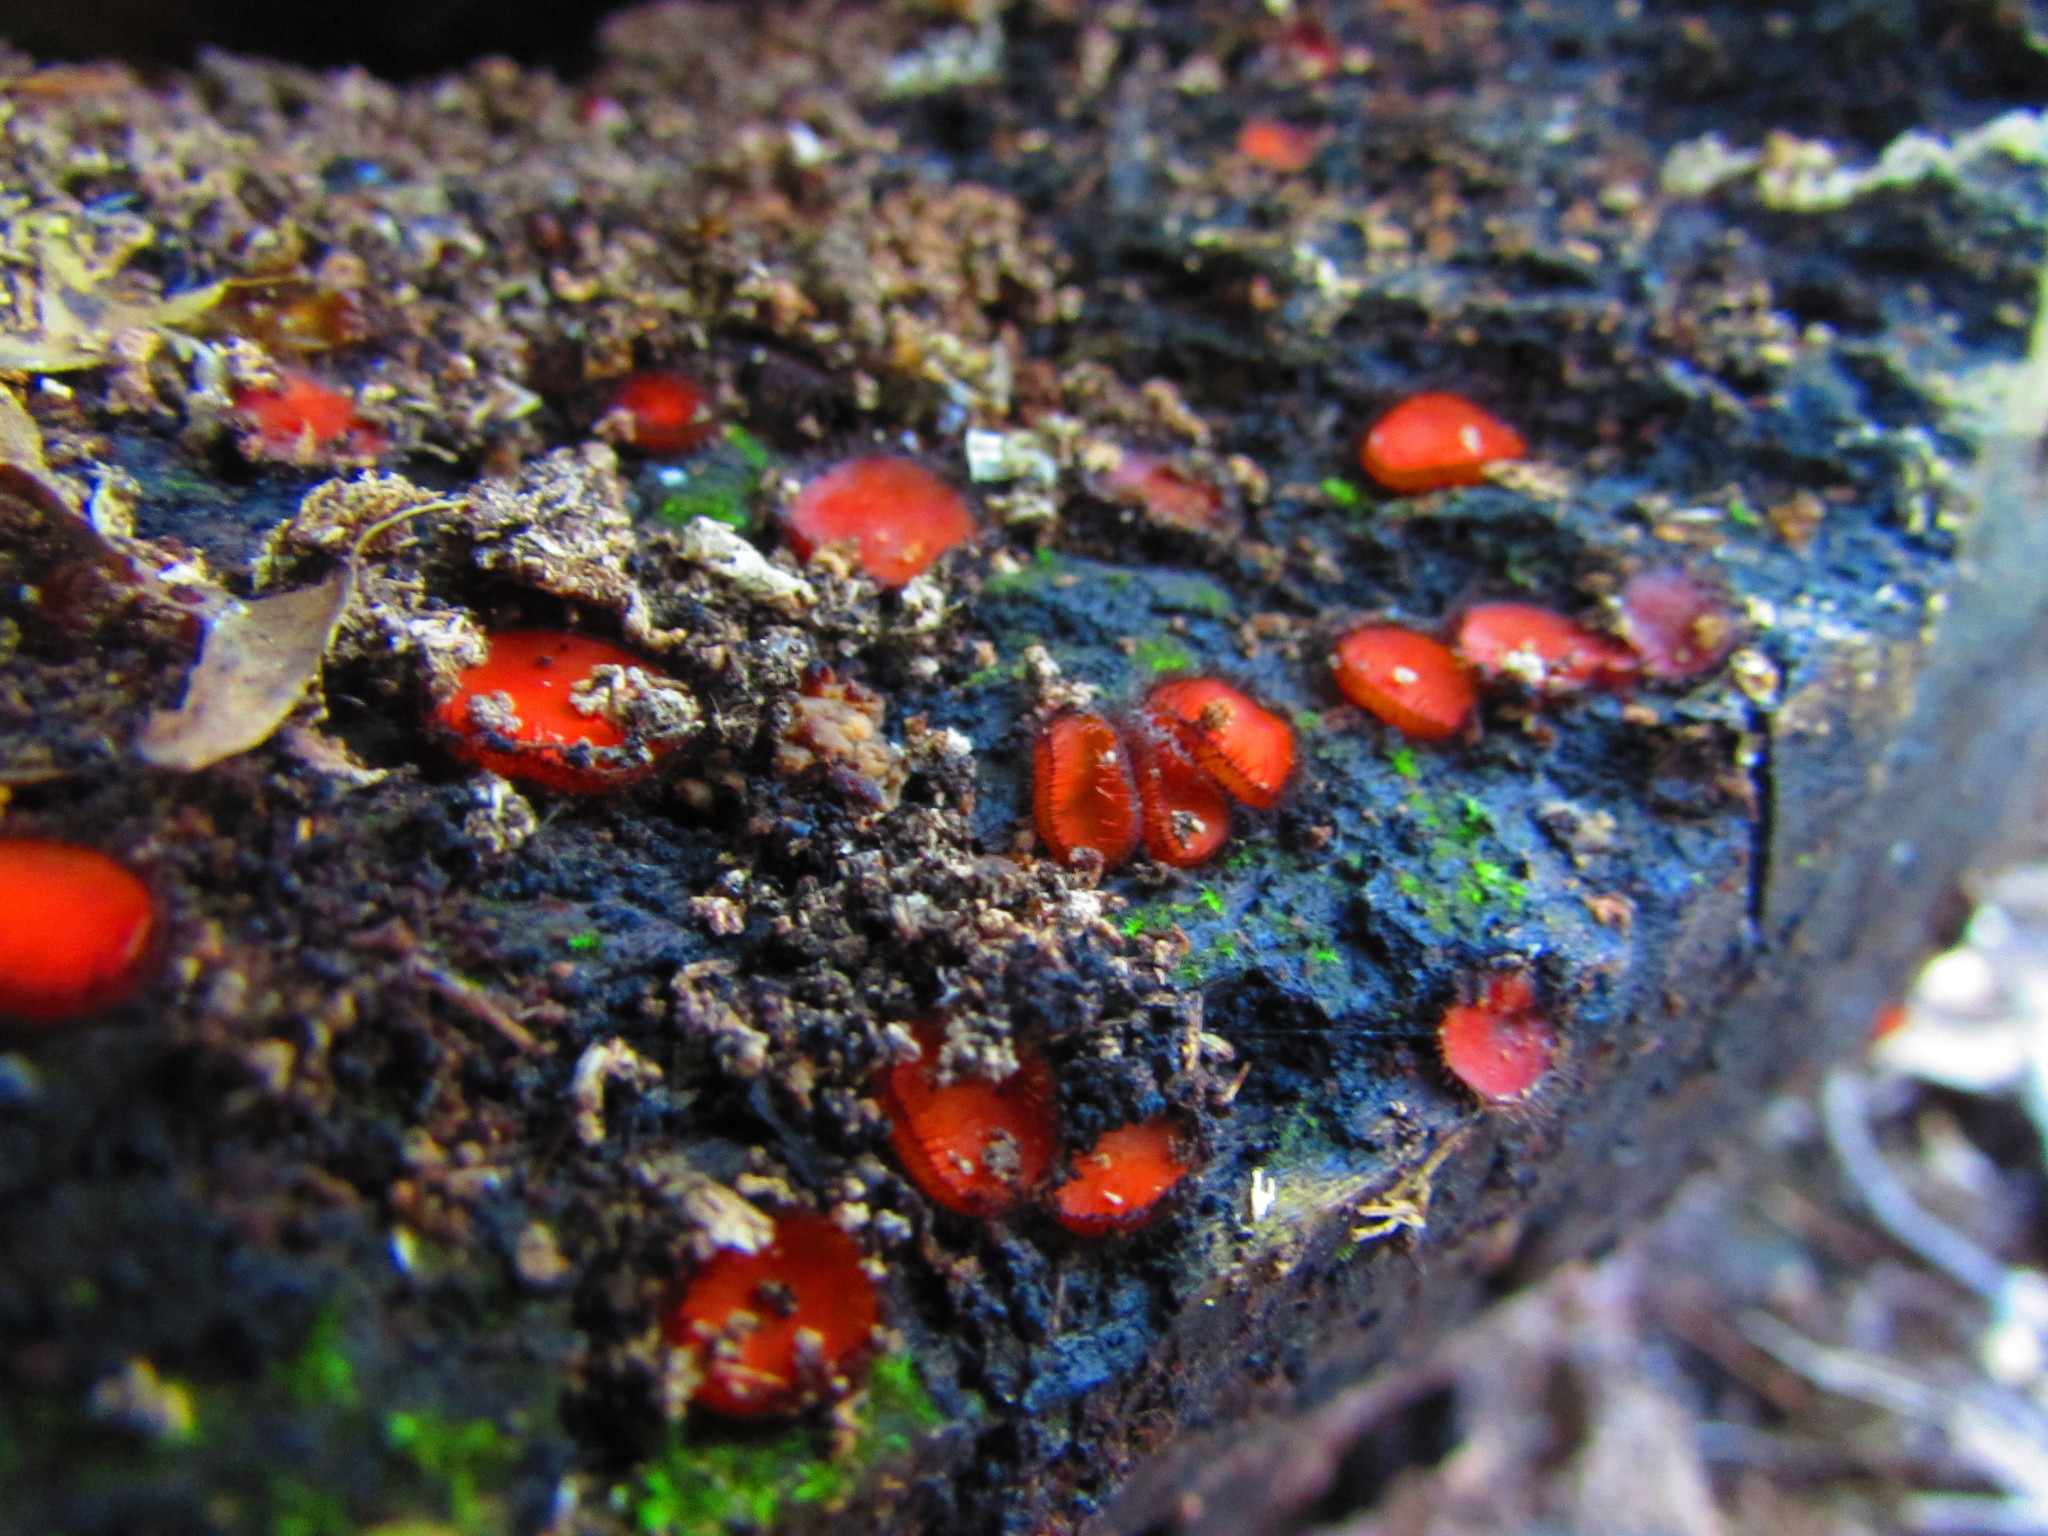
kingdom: Fungi
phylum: Ascomycota
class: Pezizomycetes
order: Pezizales
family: Pyronemataceae
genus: Scutellinia
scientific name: Scutellinia
